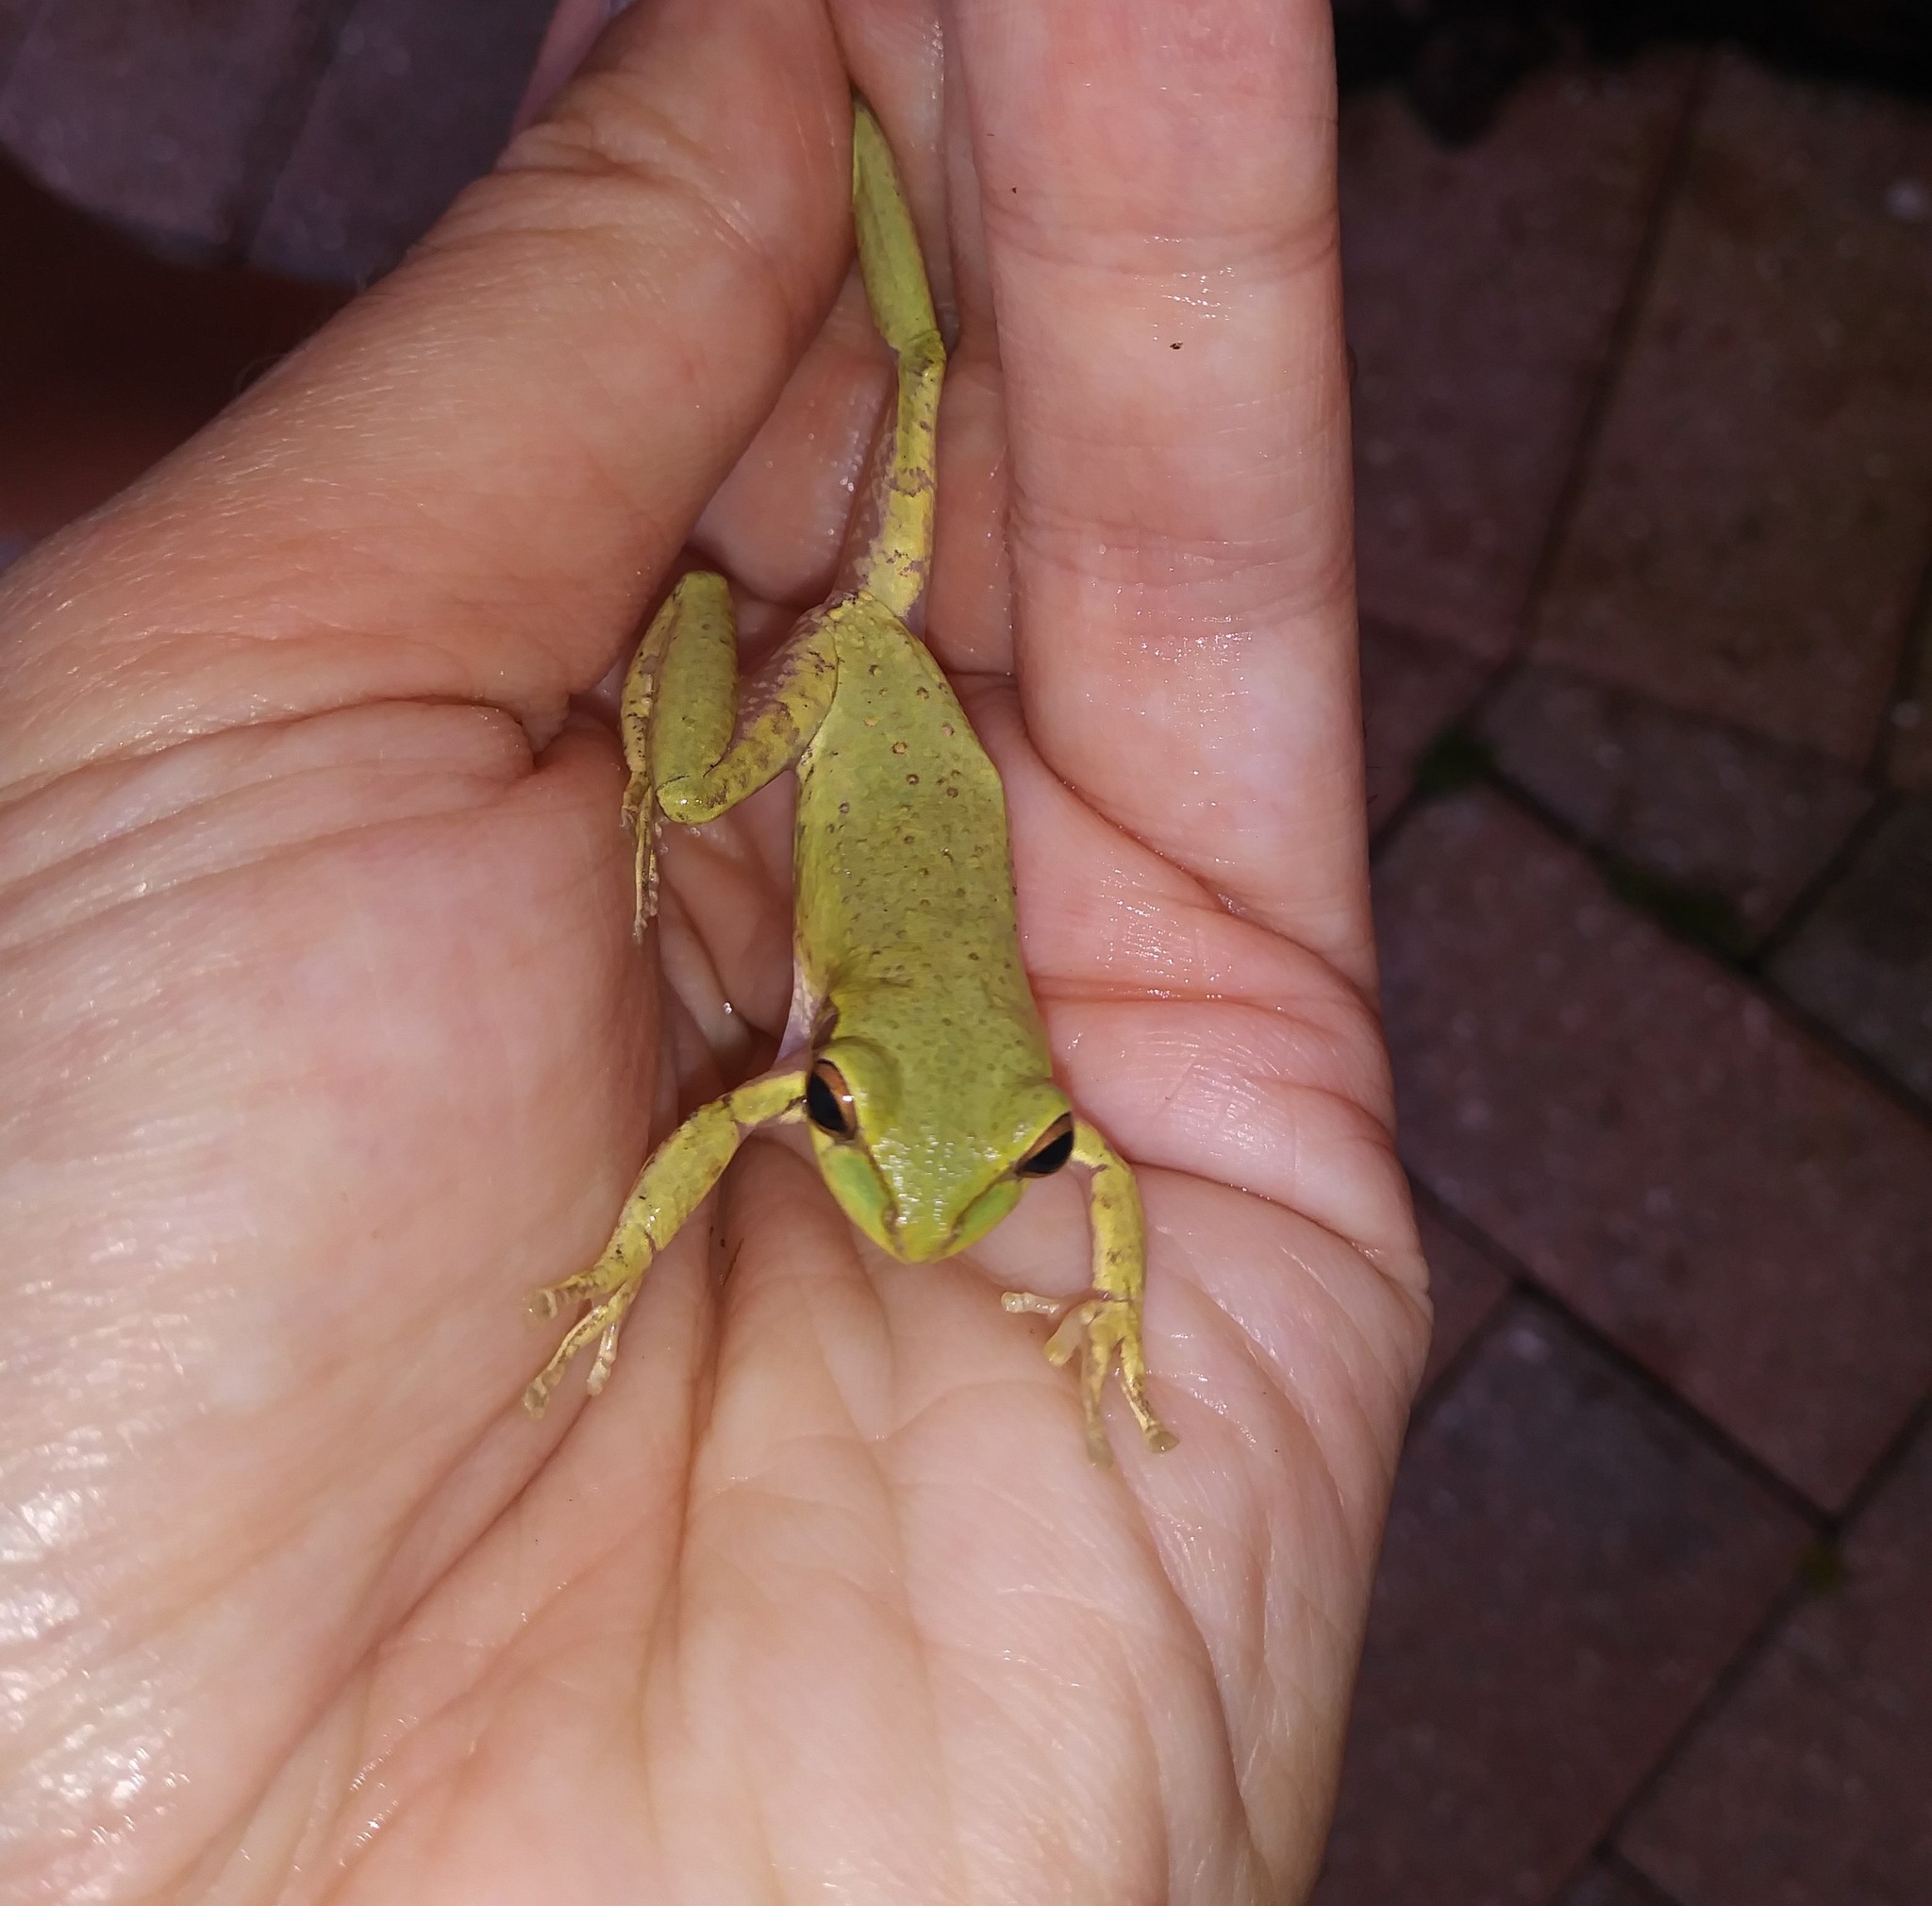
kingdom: Animalia
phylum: Chordata
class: Amphibia
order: Anura
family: Hylidae
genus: Osteopilus
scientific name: Osteopilus septentrionalis
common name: Cuban treefrog
